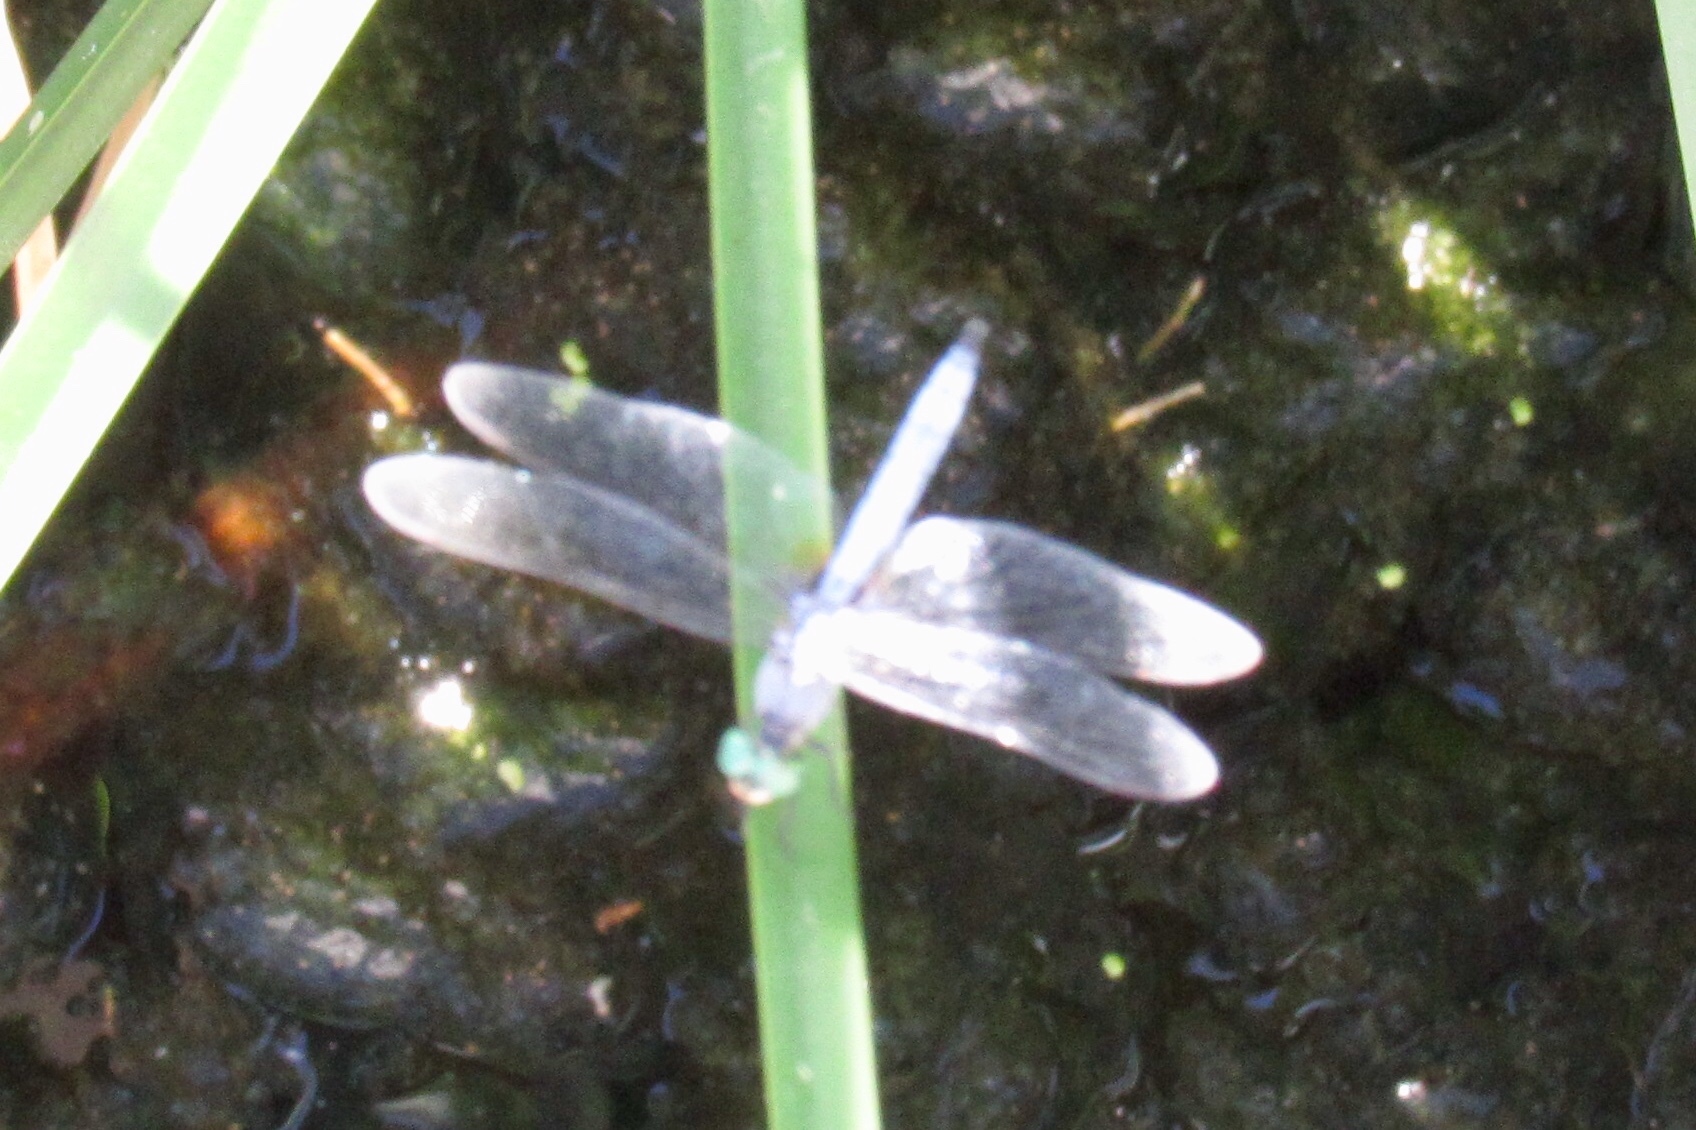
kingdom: Animalia
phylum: Arthropoda
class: Insecta
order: Odonata
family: Libellulidae
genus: Pachydiplax
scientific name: Pachydiplax longipennis
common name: Blue dasher
